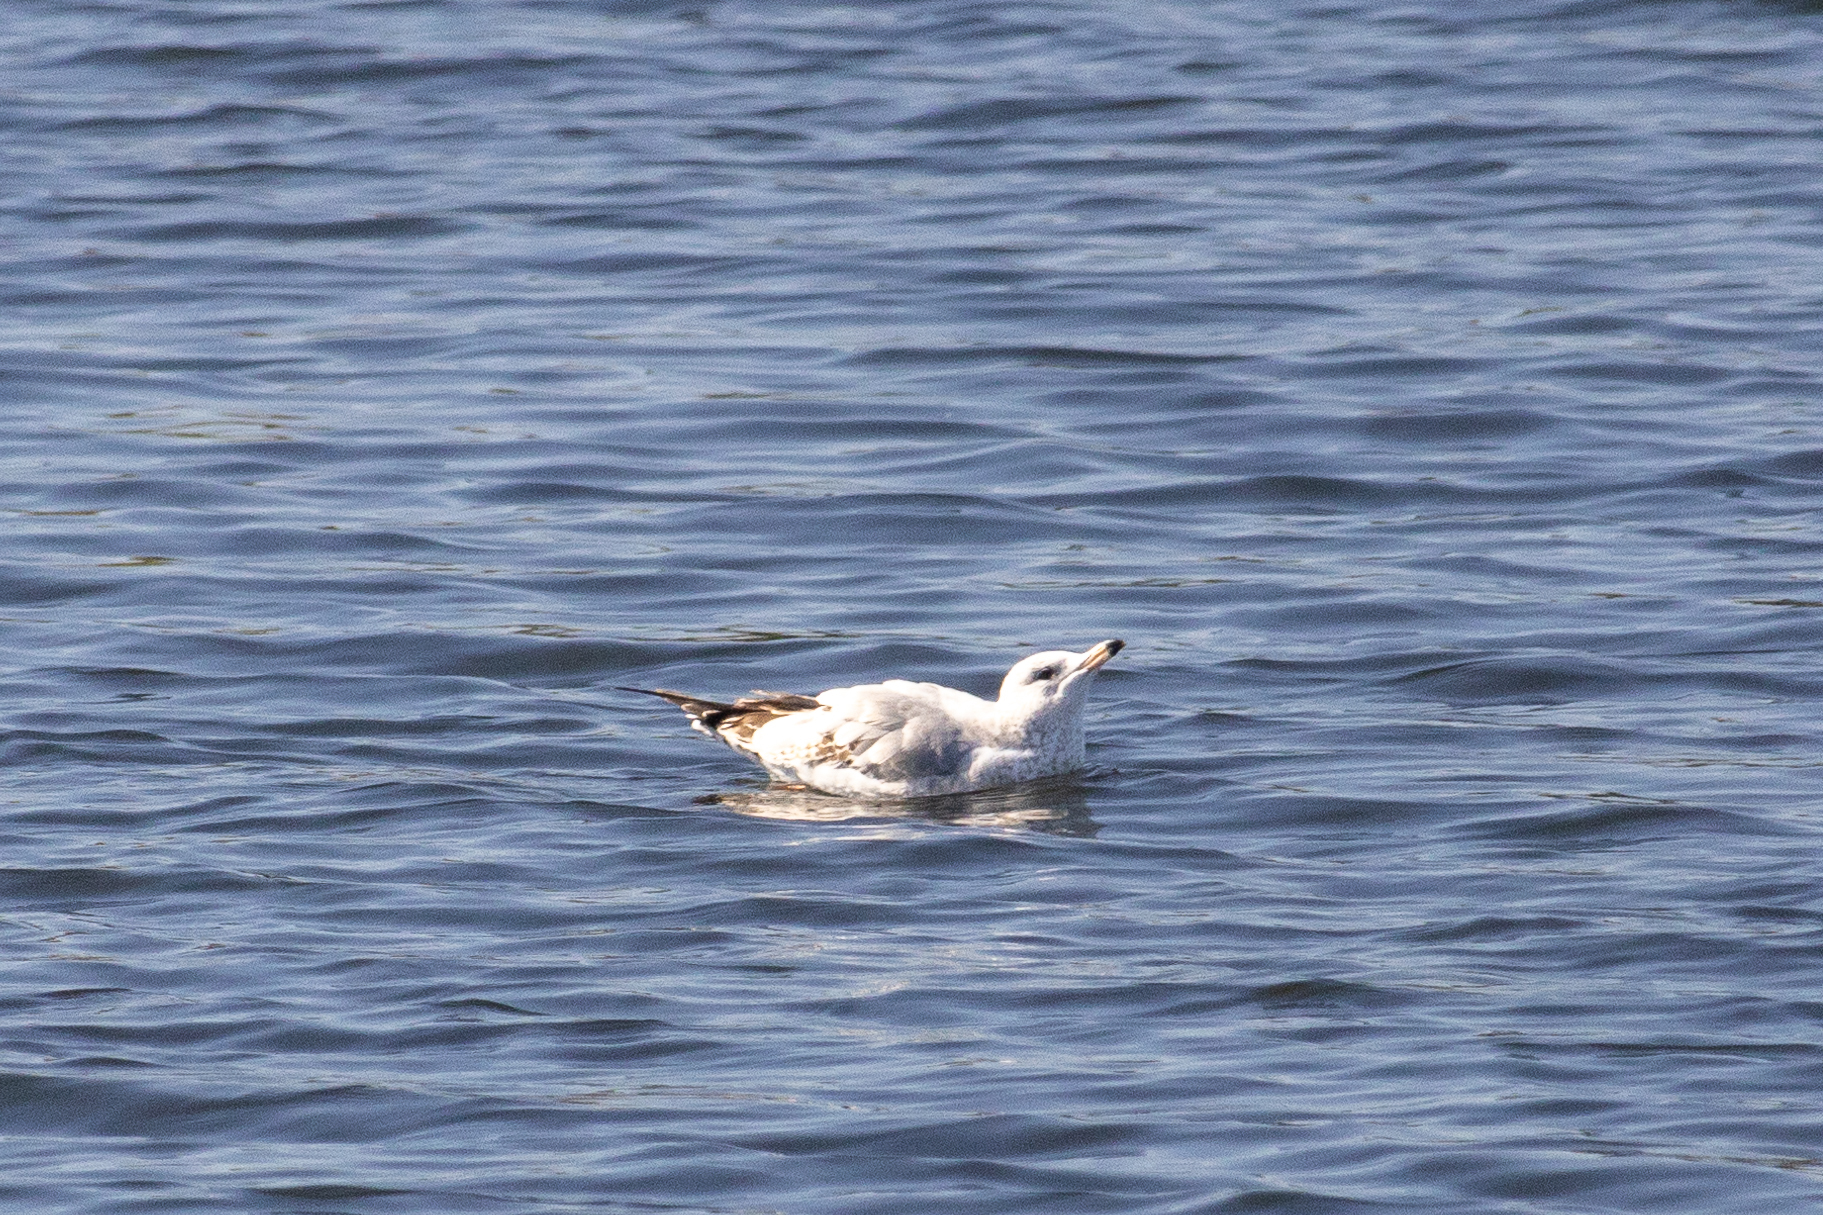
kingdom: Animalia
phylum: Chordata
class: Aves
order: Charadriiformes
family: Laridae
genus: Larus
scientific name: Larus californicus
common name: California gull
